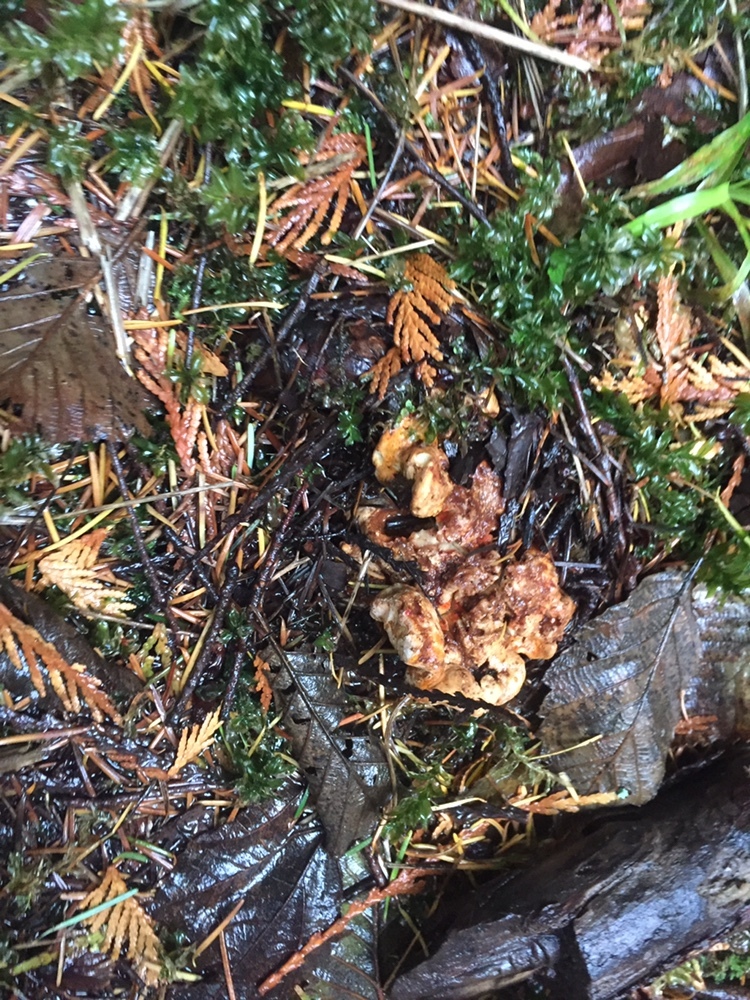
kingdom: Fungi
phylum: Ascomycota
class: Sordariomycetes
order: Hypocreales
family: Hypocreaceae
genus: Hypomyces
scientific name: Hypomyces lactifluorum
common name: Lobster mushroom
